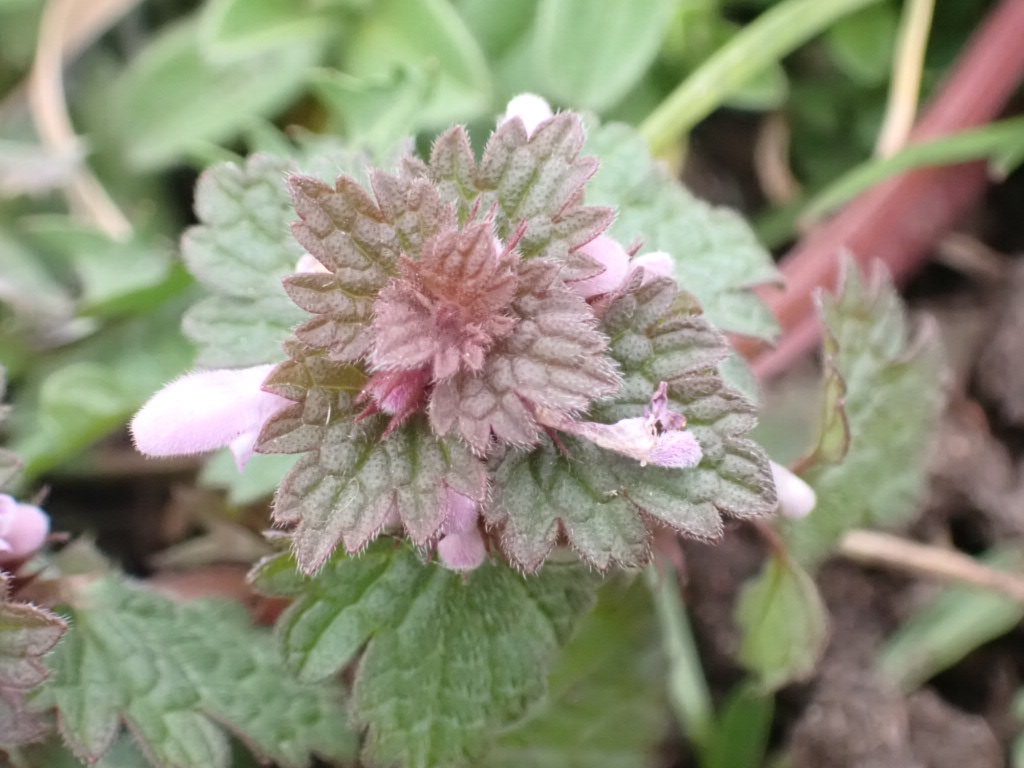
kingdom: Plantae
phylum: Tracheophyta
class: Magnoliopsida
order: Lamiales
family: Lamiaceae
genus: Lamium
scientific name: Lamium hybridum
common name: Cut-leaved dead-nettle
